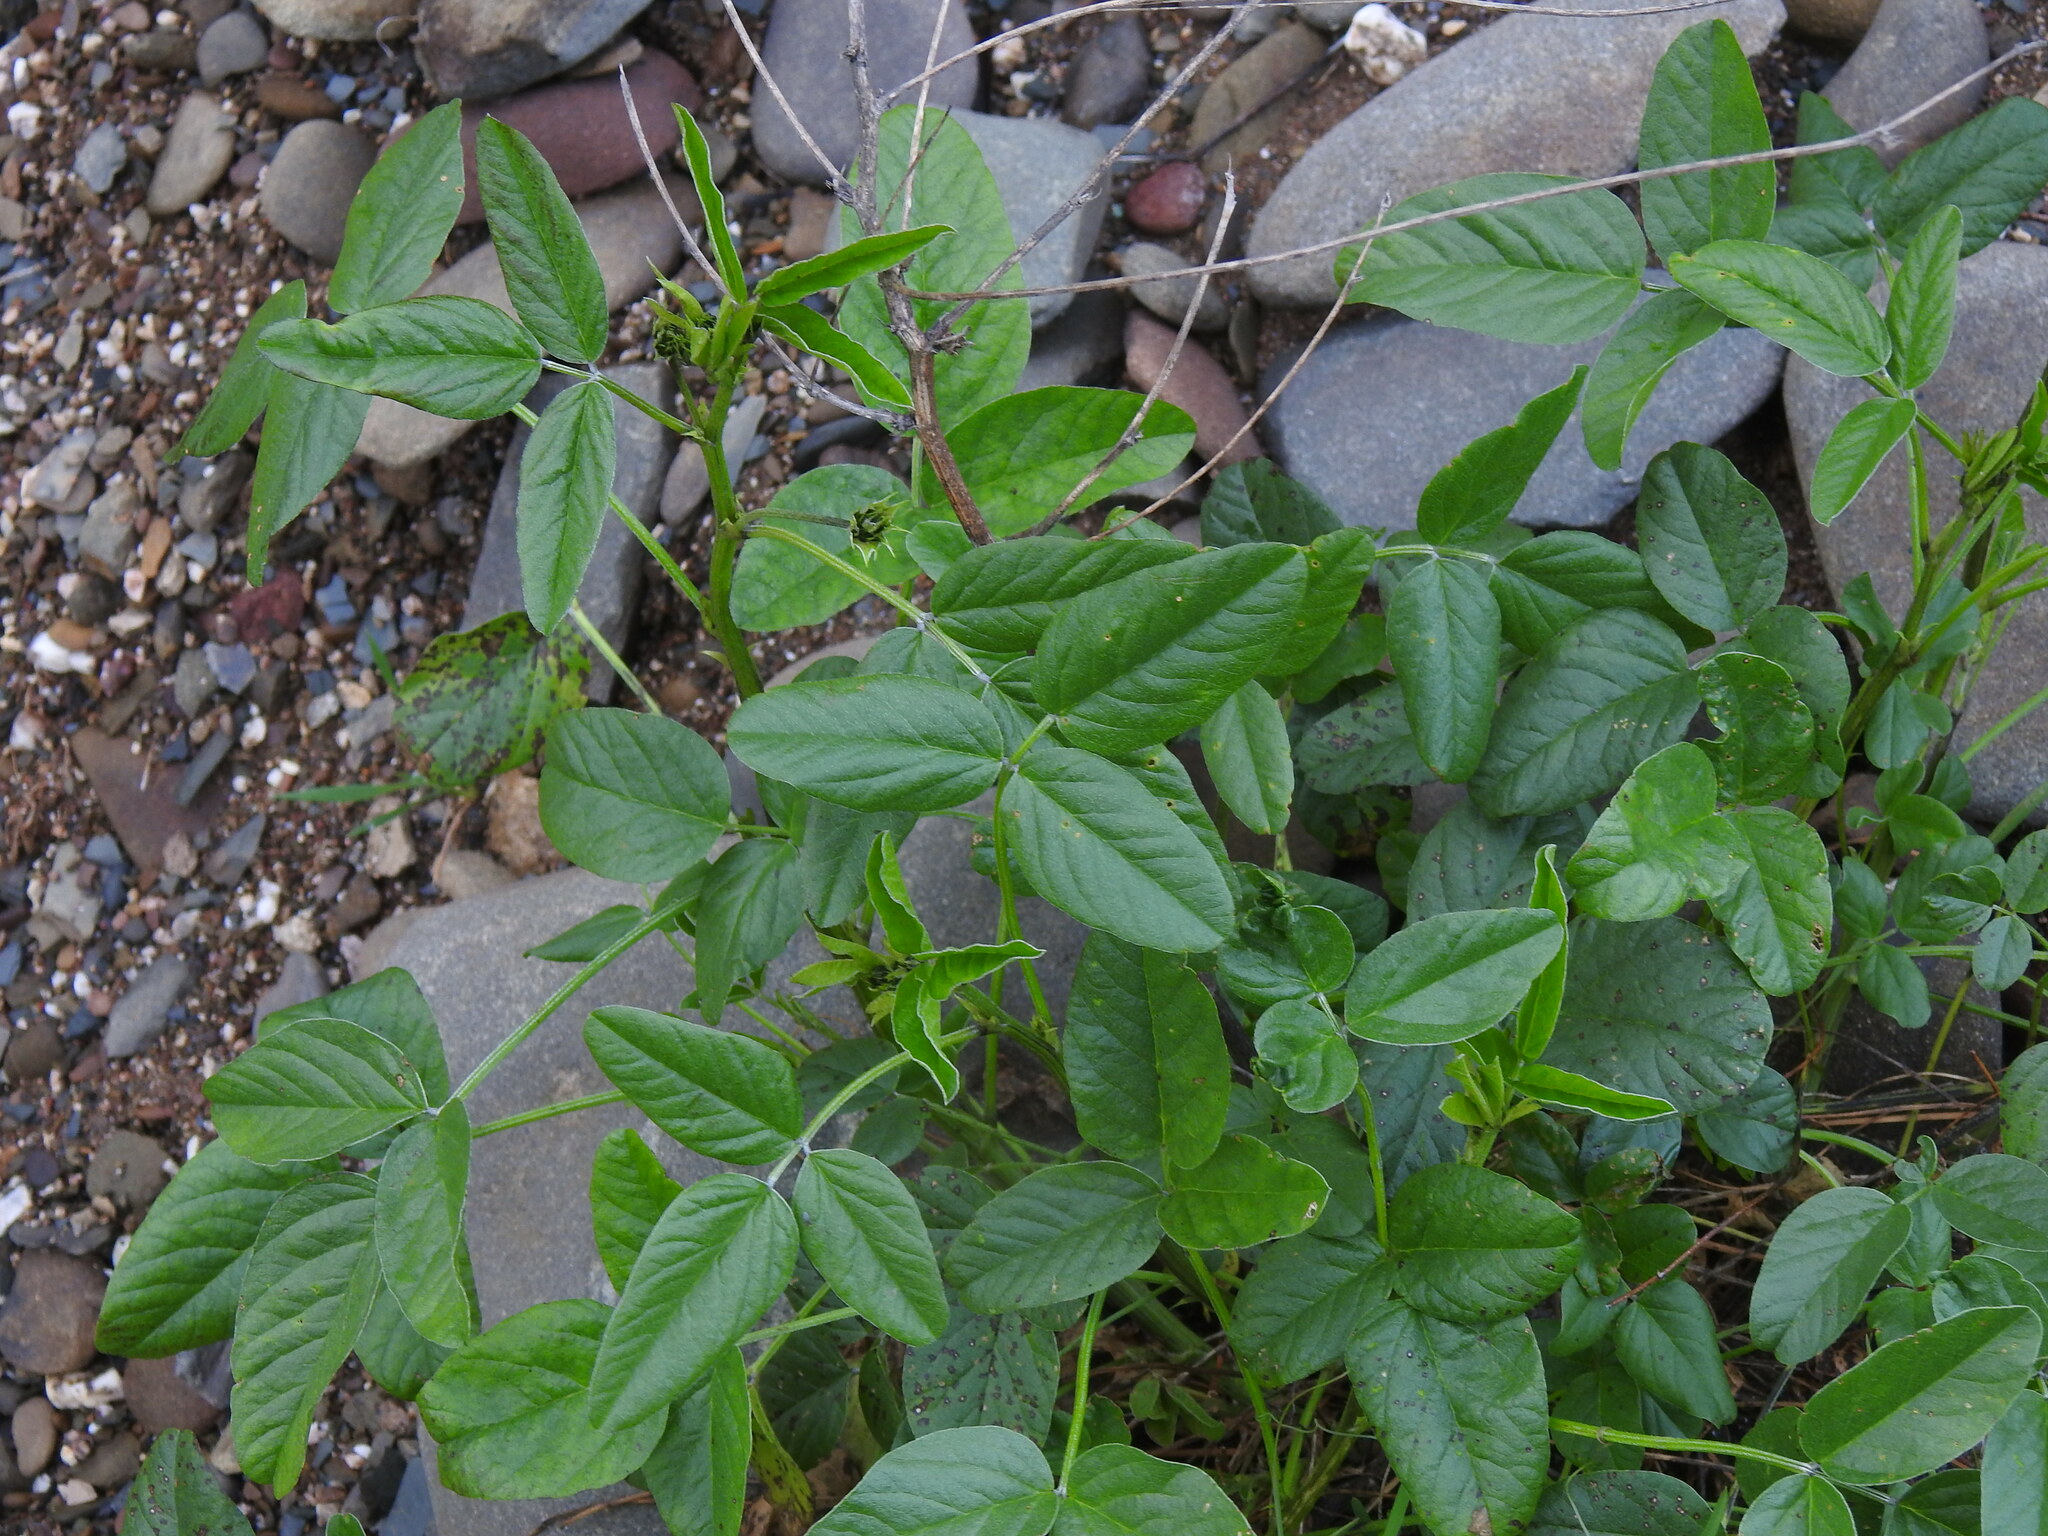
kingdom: Plantae
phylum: Tracheophyta
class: Magnoliopsida
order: Fabales
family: Fabaceae
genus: Bituminaria
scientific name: Bituminaria bituminosa
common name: Arabian pea
